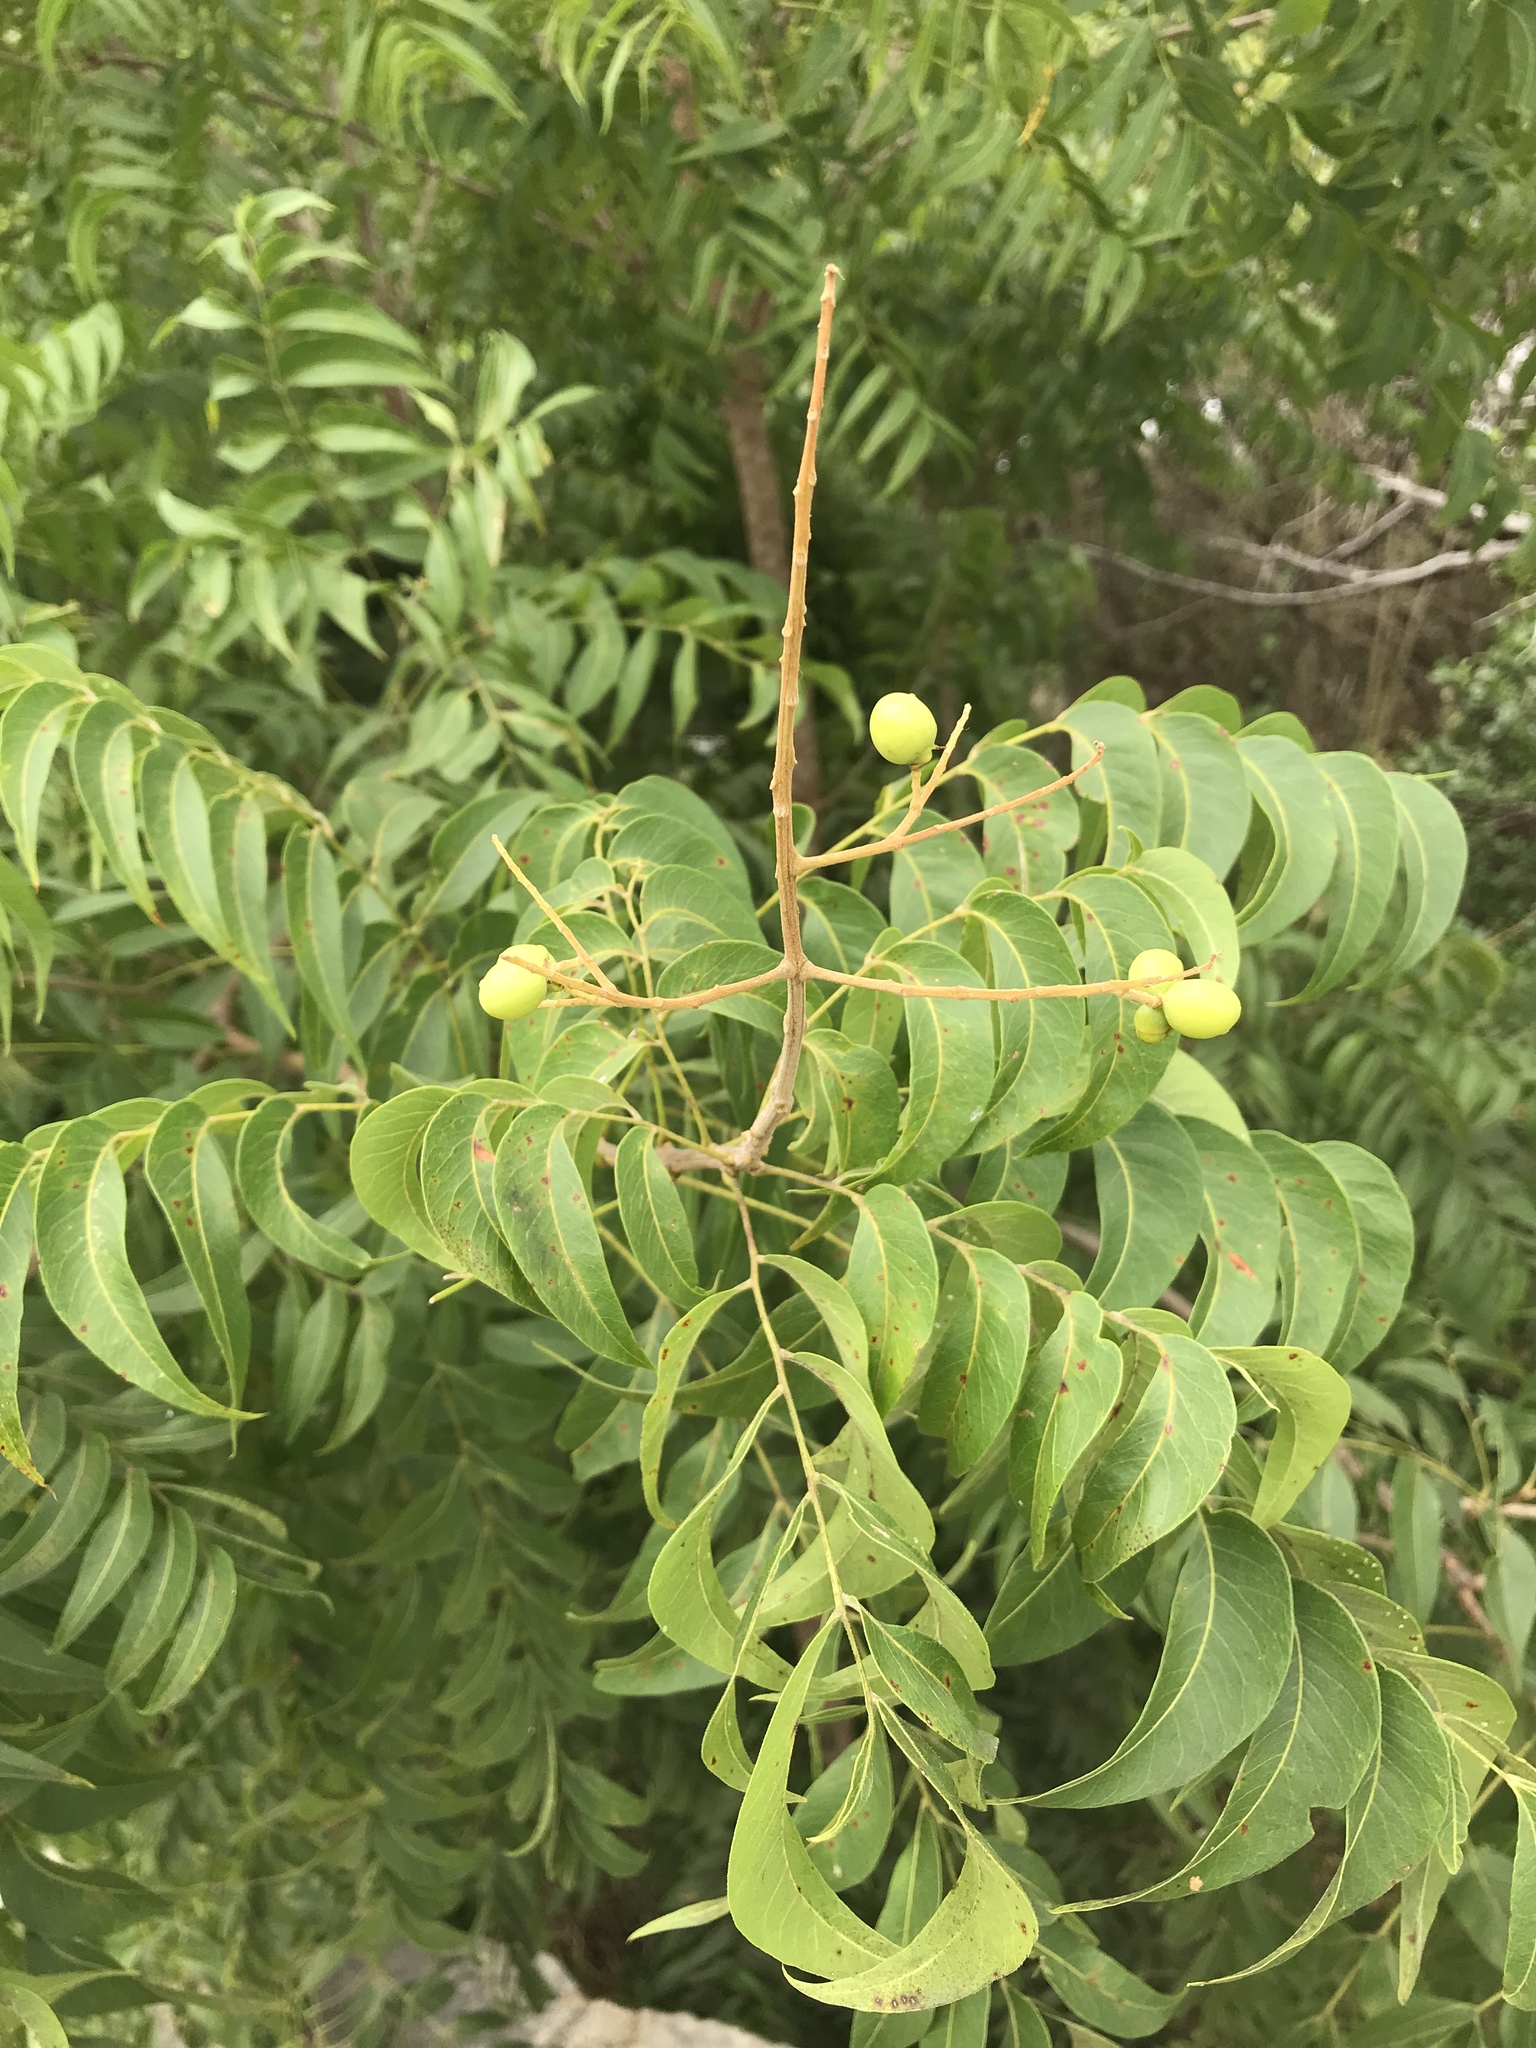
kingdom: Plantae
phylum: Tracheophyta
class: Magnoliopsida
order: Sapindales
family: Sapindaceae
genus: Sapindus
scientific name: Sapindus drummondii
